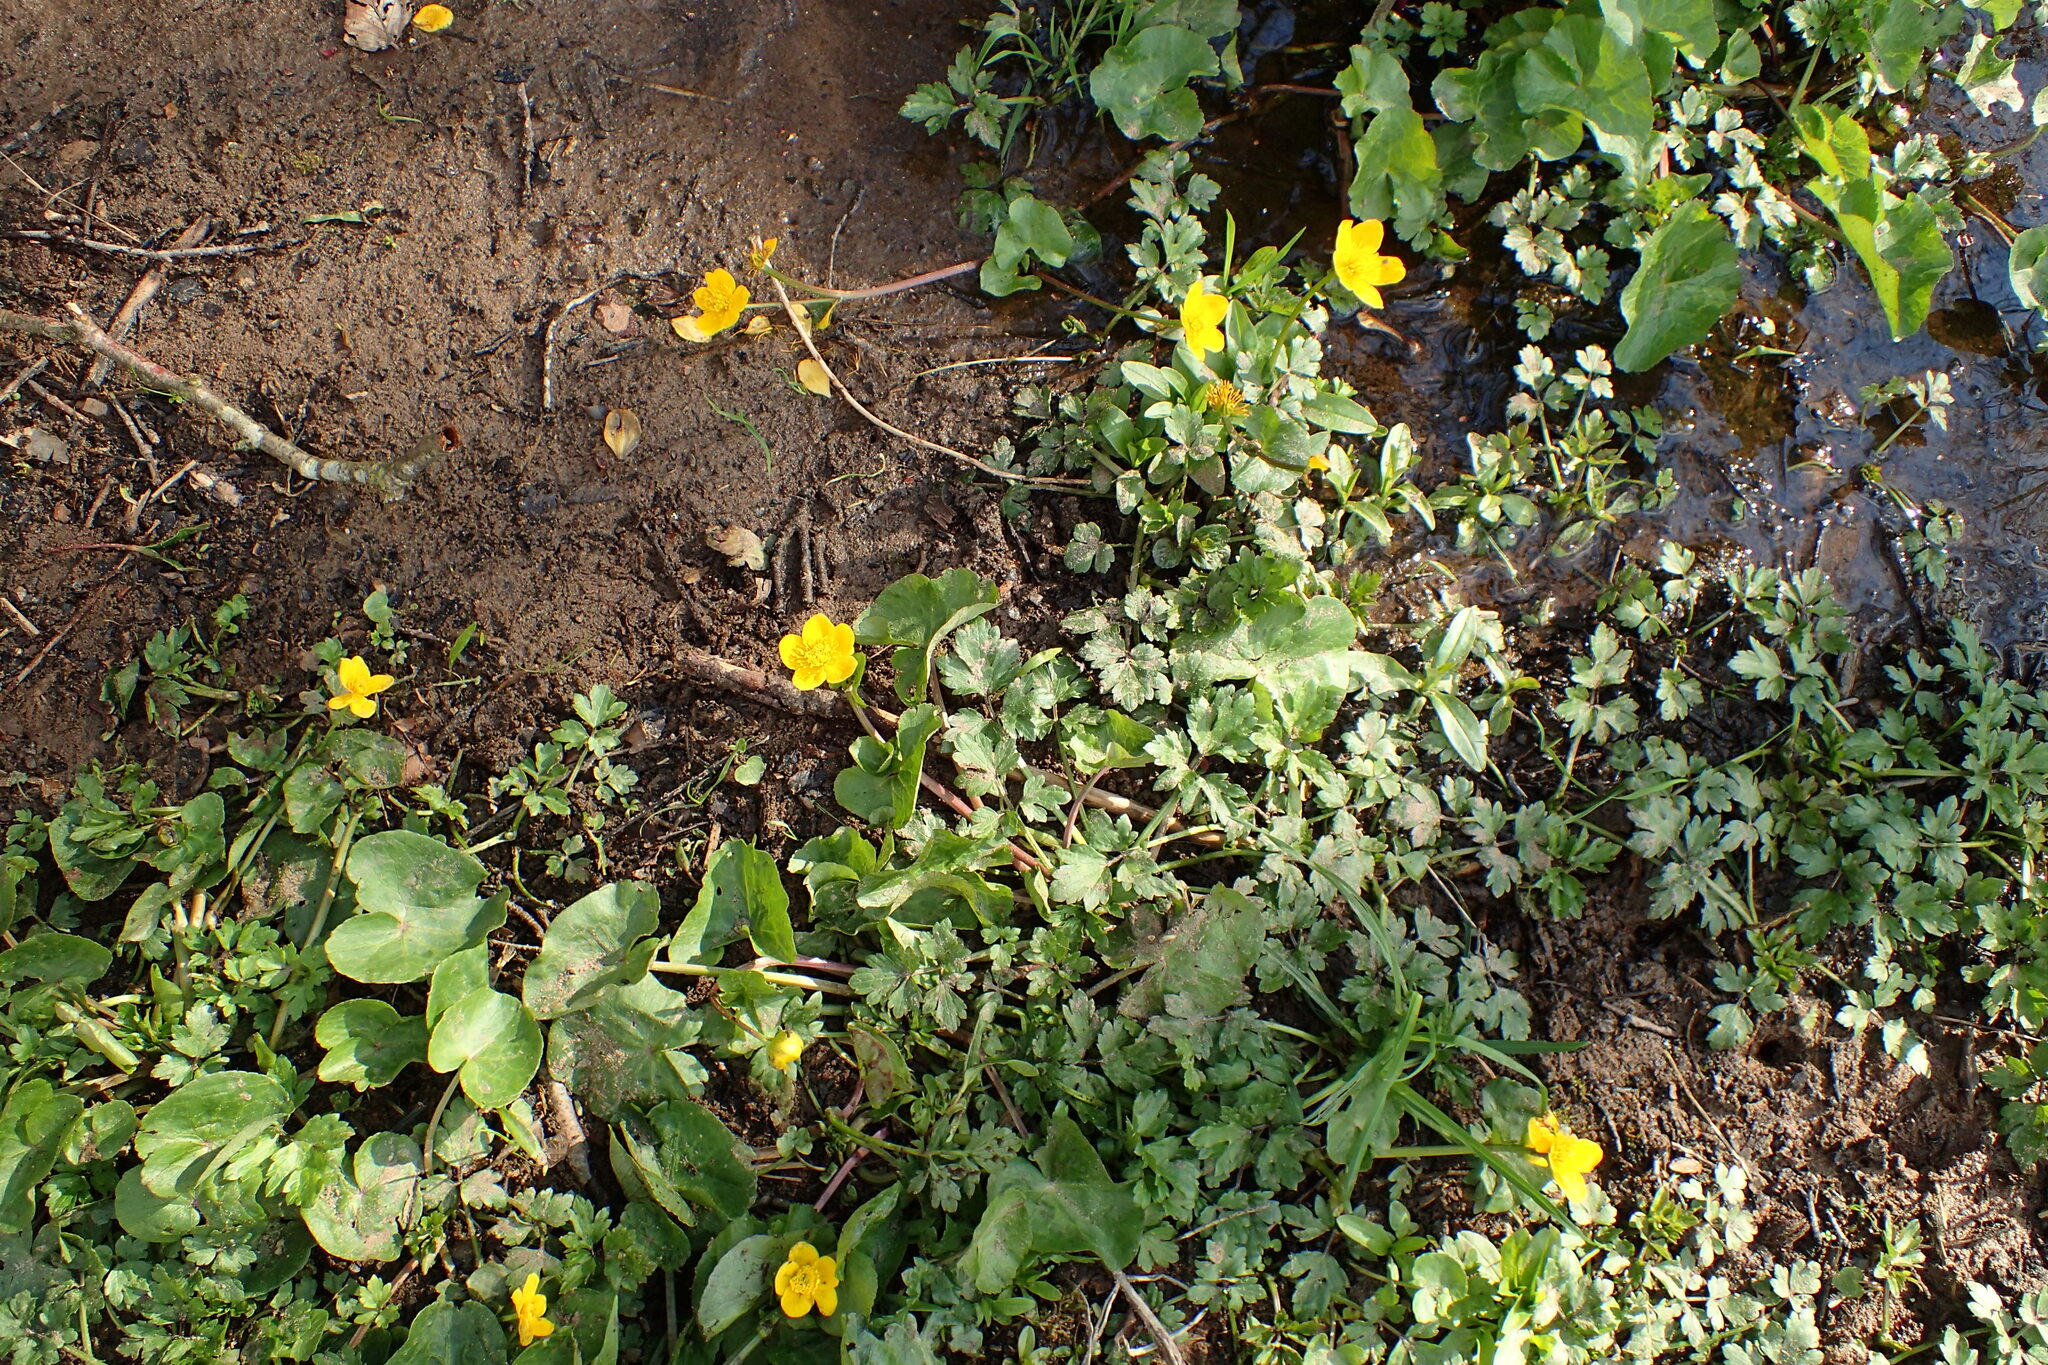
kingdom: Plantae
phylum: Tracheophyta
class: Magnoliopsida
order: Ranunculales
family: Ranunculaceae
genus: Caltha
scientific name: Caltha palustris
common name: Marsh marigold
